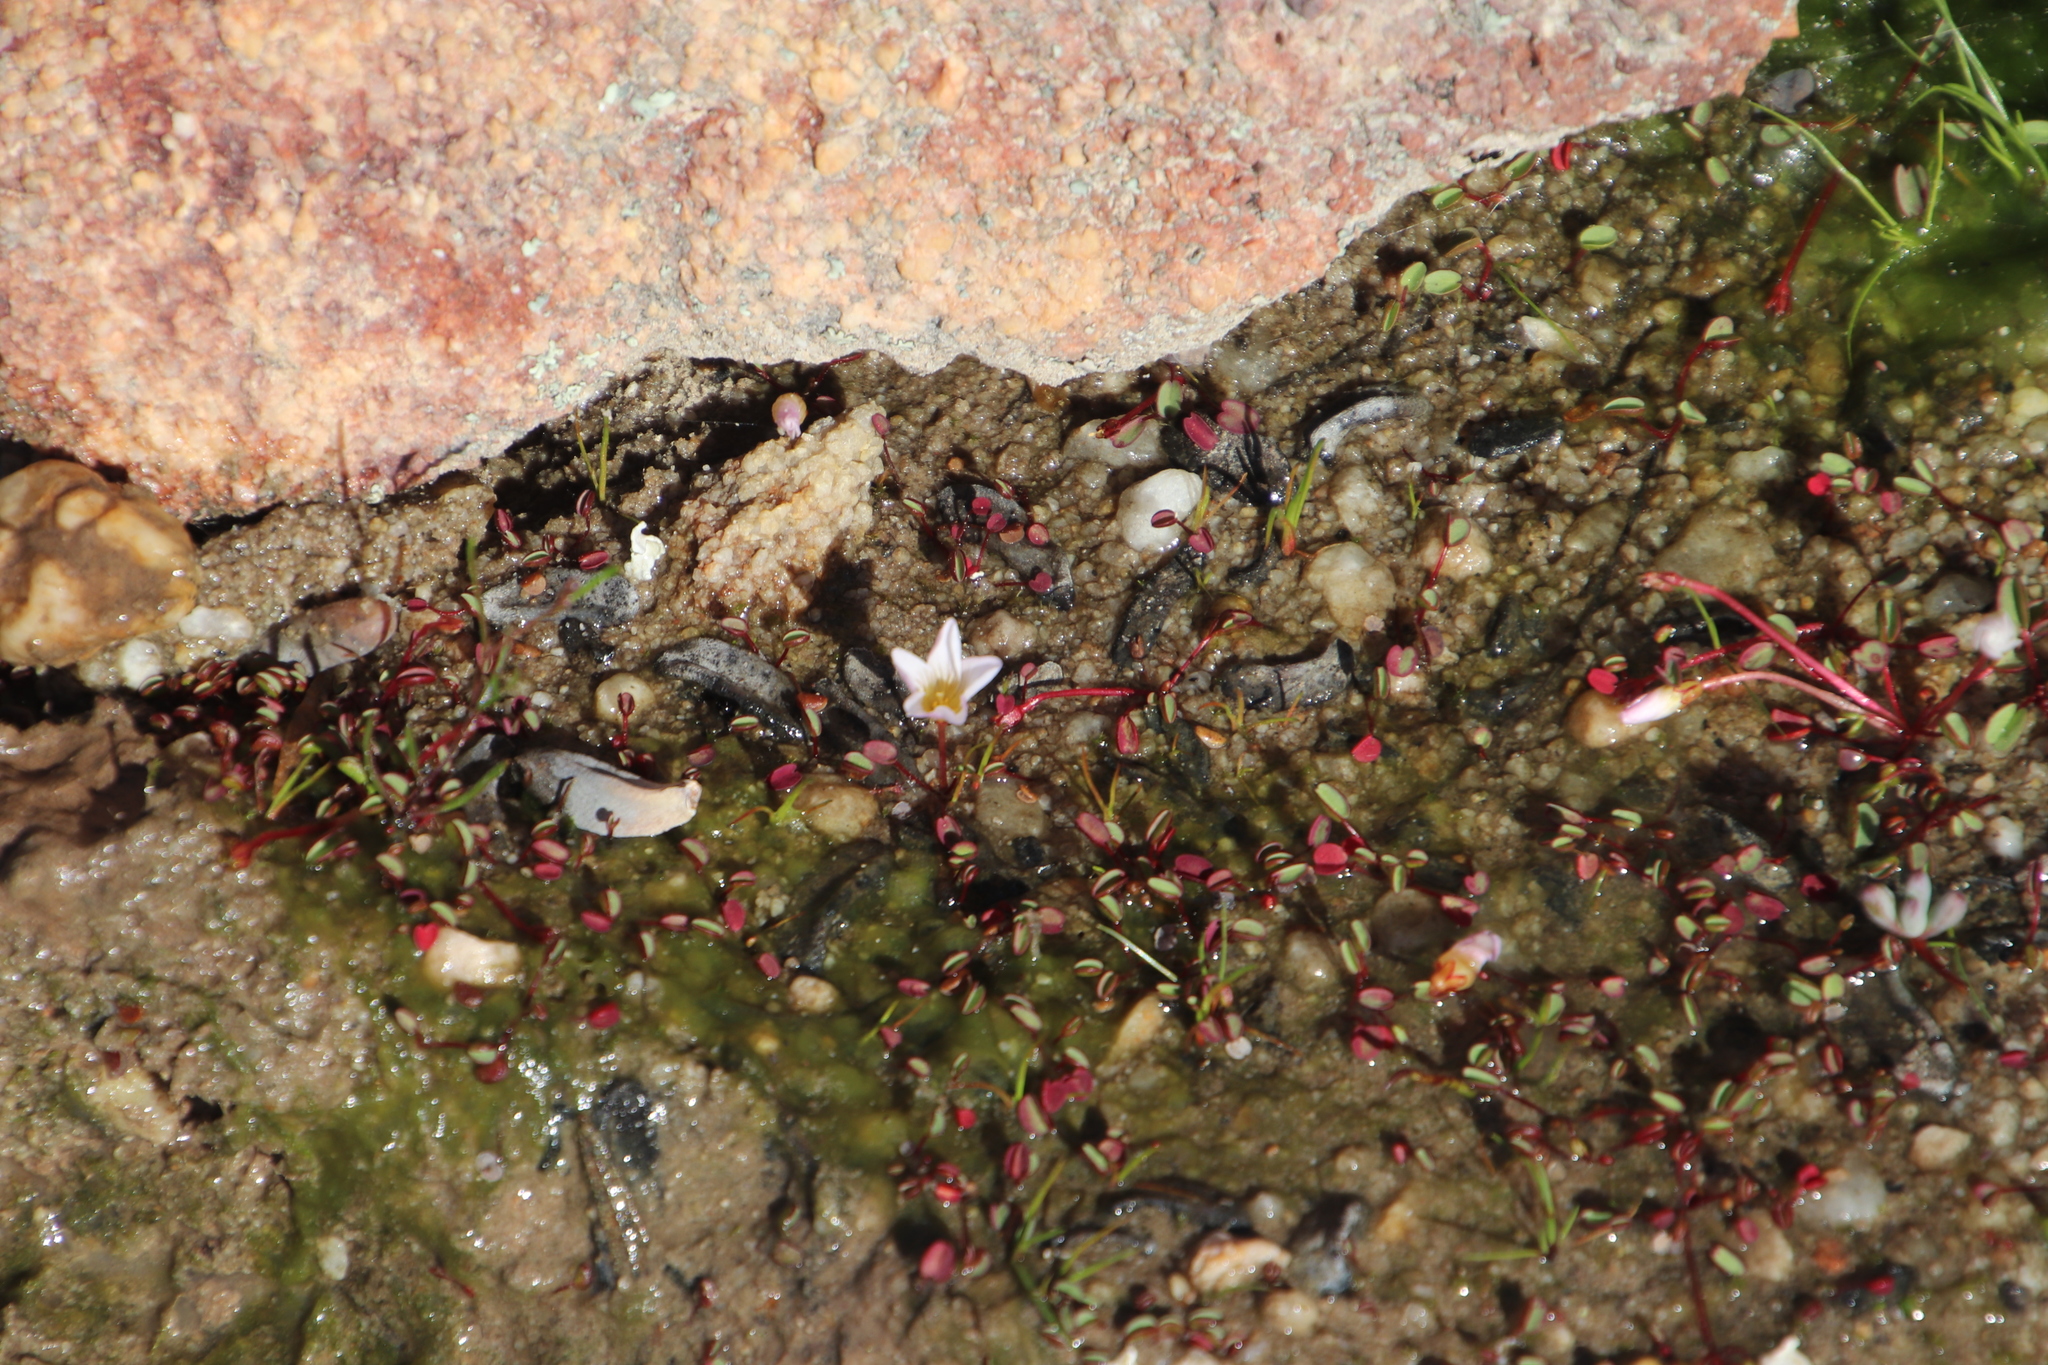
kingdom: Plantae
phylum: Tracheophyta
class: Magnoliopsida
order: Oxalidales
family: Oxalidaceae
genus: Oxalis
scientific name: Oxalis simplex
